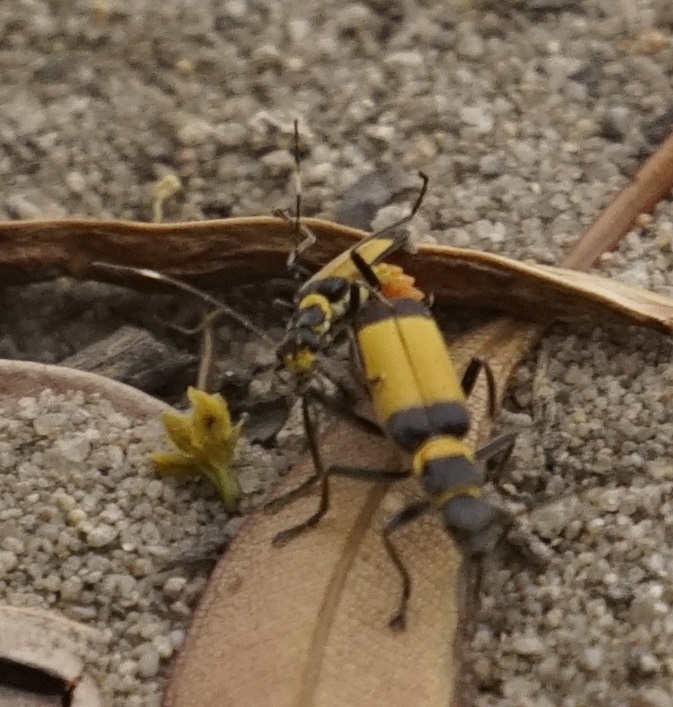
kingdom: Animalia
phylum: Arthropoda
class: Insecta
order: Coleoptera
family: Cantharidae
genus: Chauliognathus
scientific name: Chauliognathus
